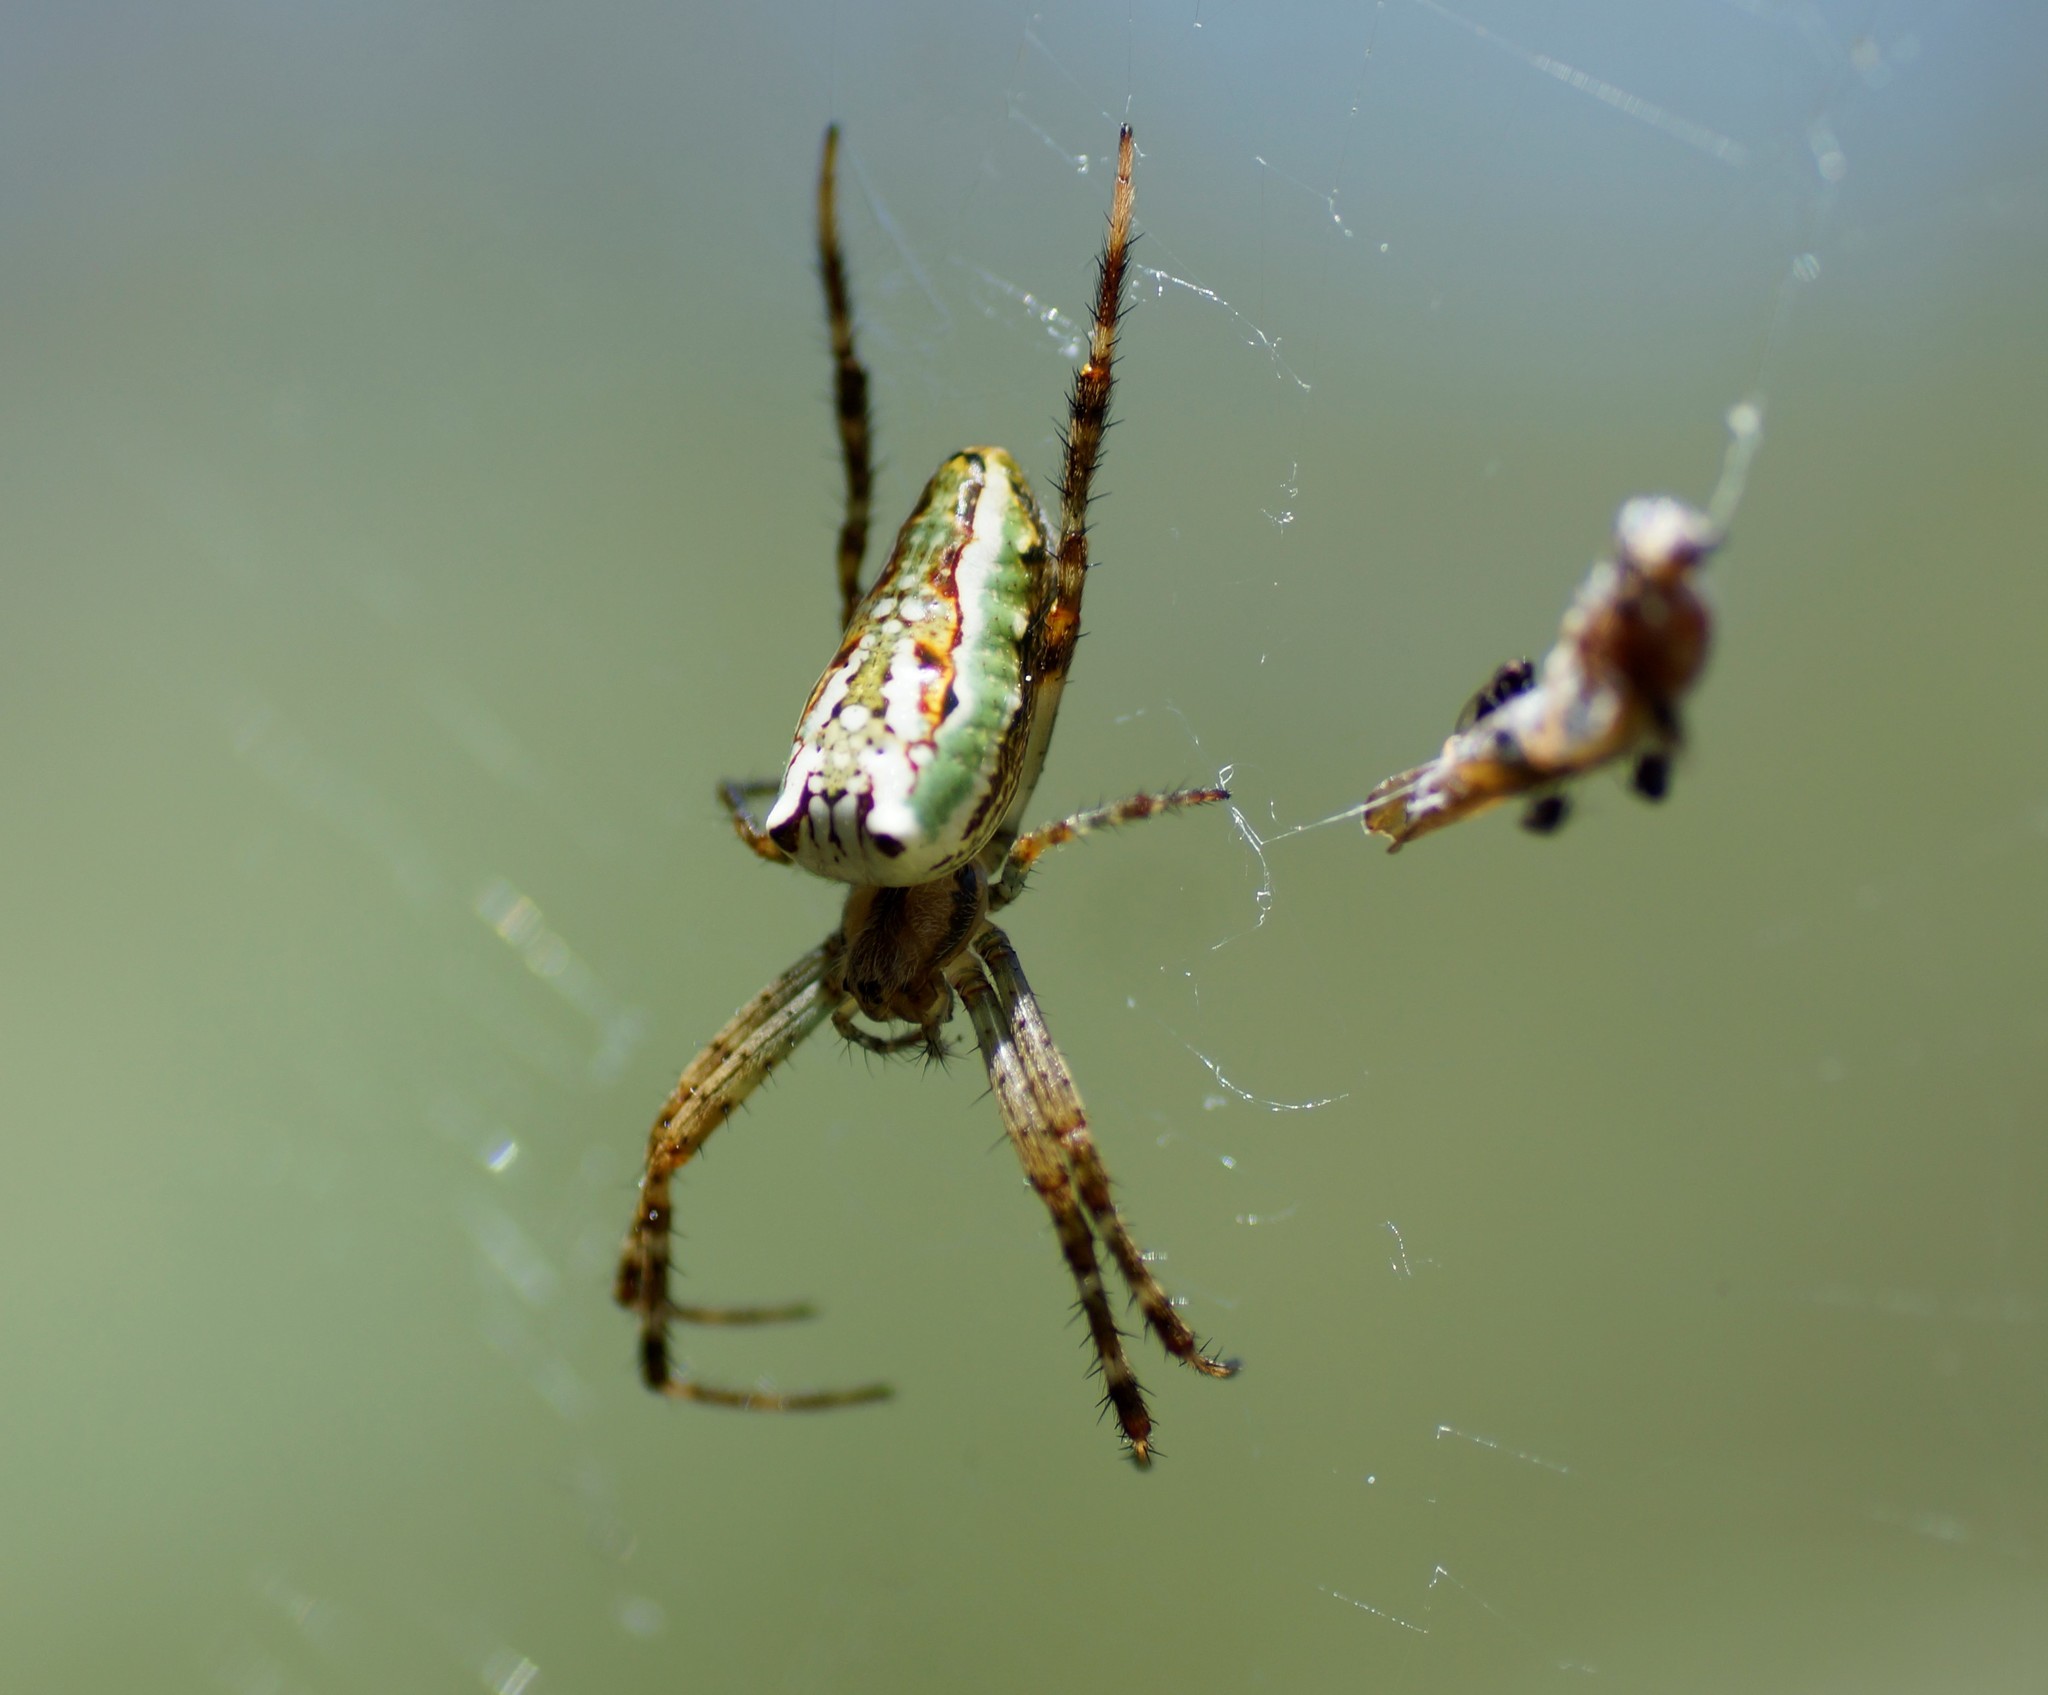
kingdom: Animalia
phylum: Arthropoda
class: Arachnida
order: Araneae
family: Araneidae
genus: Plebs
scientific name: Plebs bradleyi
